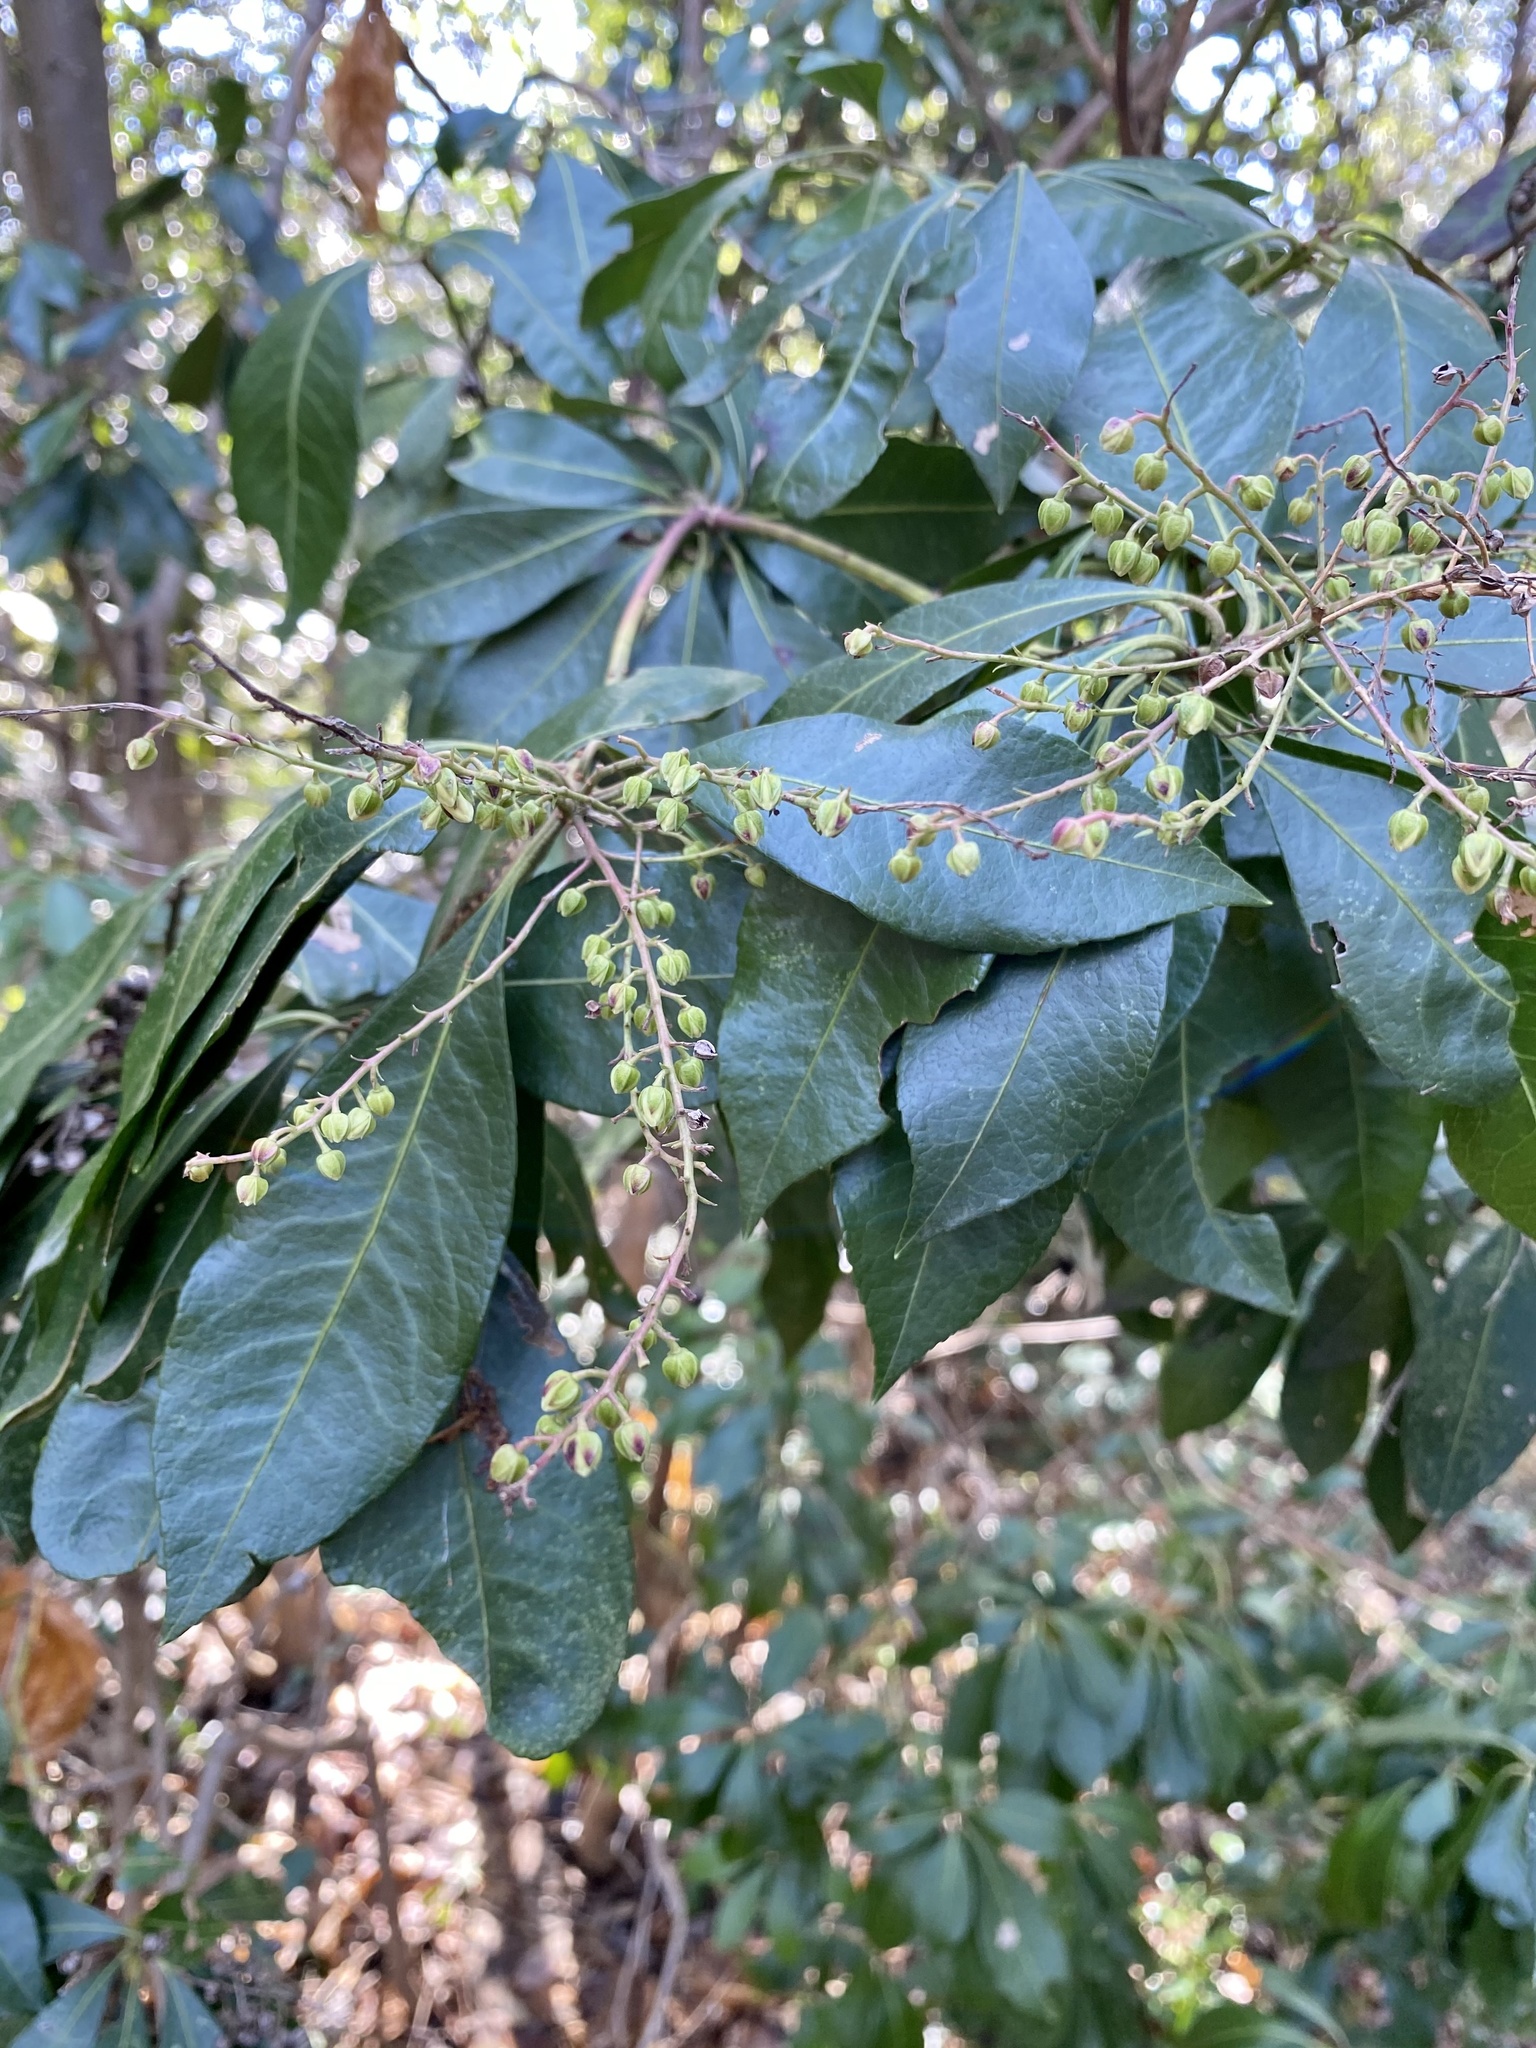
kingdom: Plantae
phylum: Tracheophyta
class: Magnoliopsida
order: Ericales
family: Ericaceae
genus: Pieris
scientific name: Pieris japonica
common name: Japanese pieris
